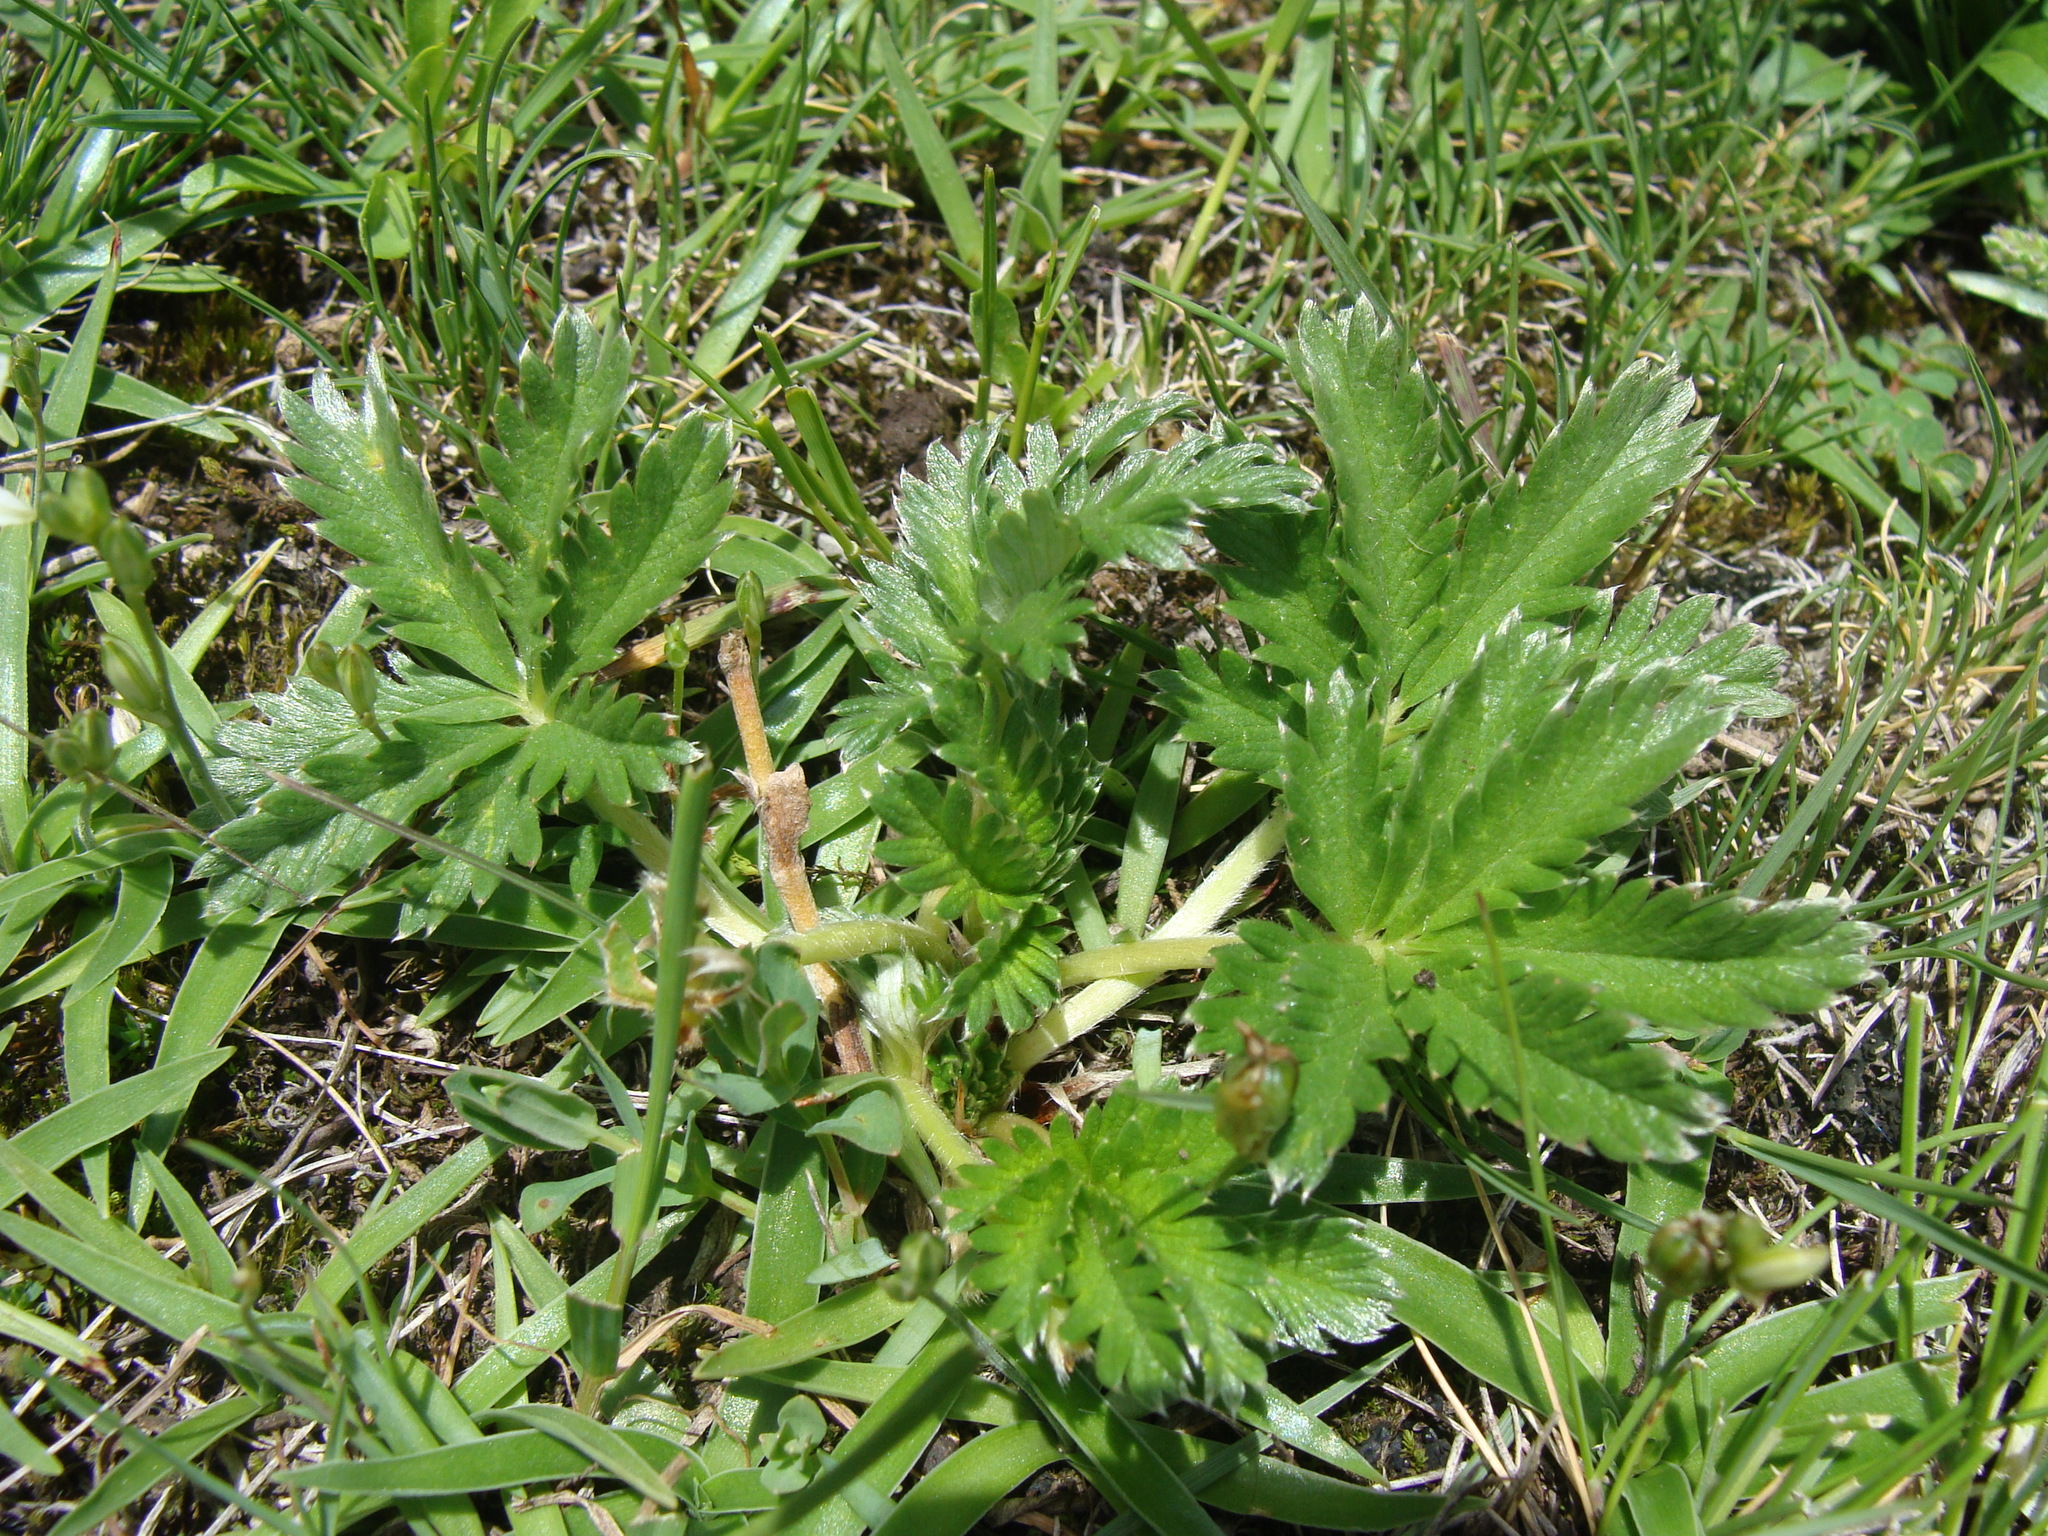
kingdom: Plantae
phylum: Tracheophyta
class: Magnoliopsida
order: Rosales
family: Rosaceae
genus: Potentilla
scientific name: Potentilla ehrenbergiana
